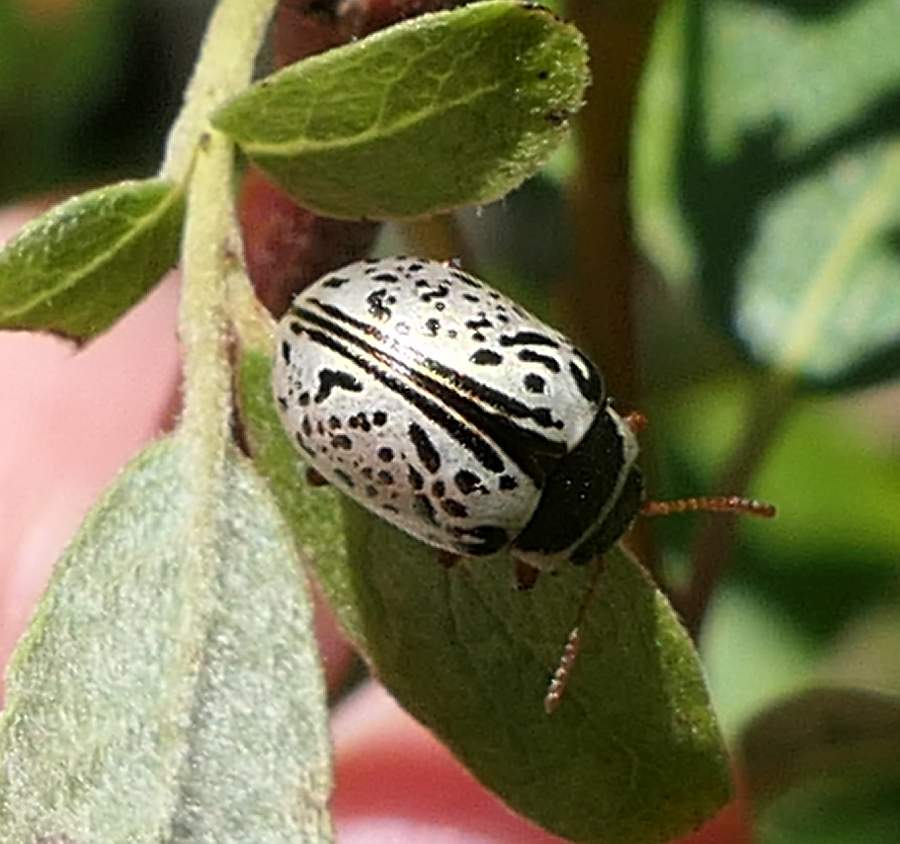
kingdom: Animalia
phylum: Arthropoda
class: Insecta
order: Coleoptera
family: Chrysomelidae
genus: Calligrapha
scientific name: Calligrapha multipunctata
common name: Common willow calligrapher beetle
